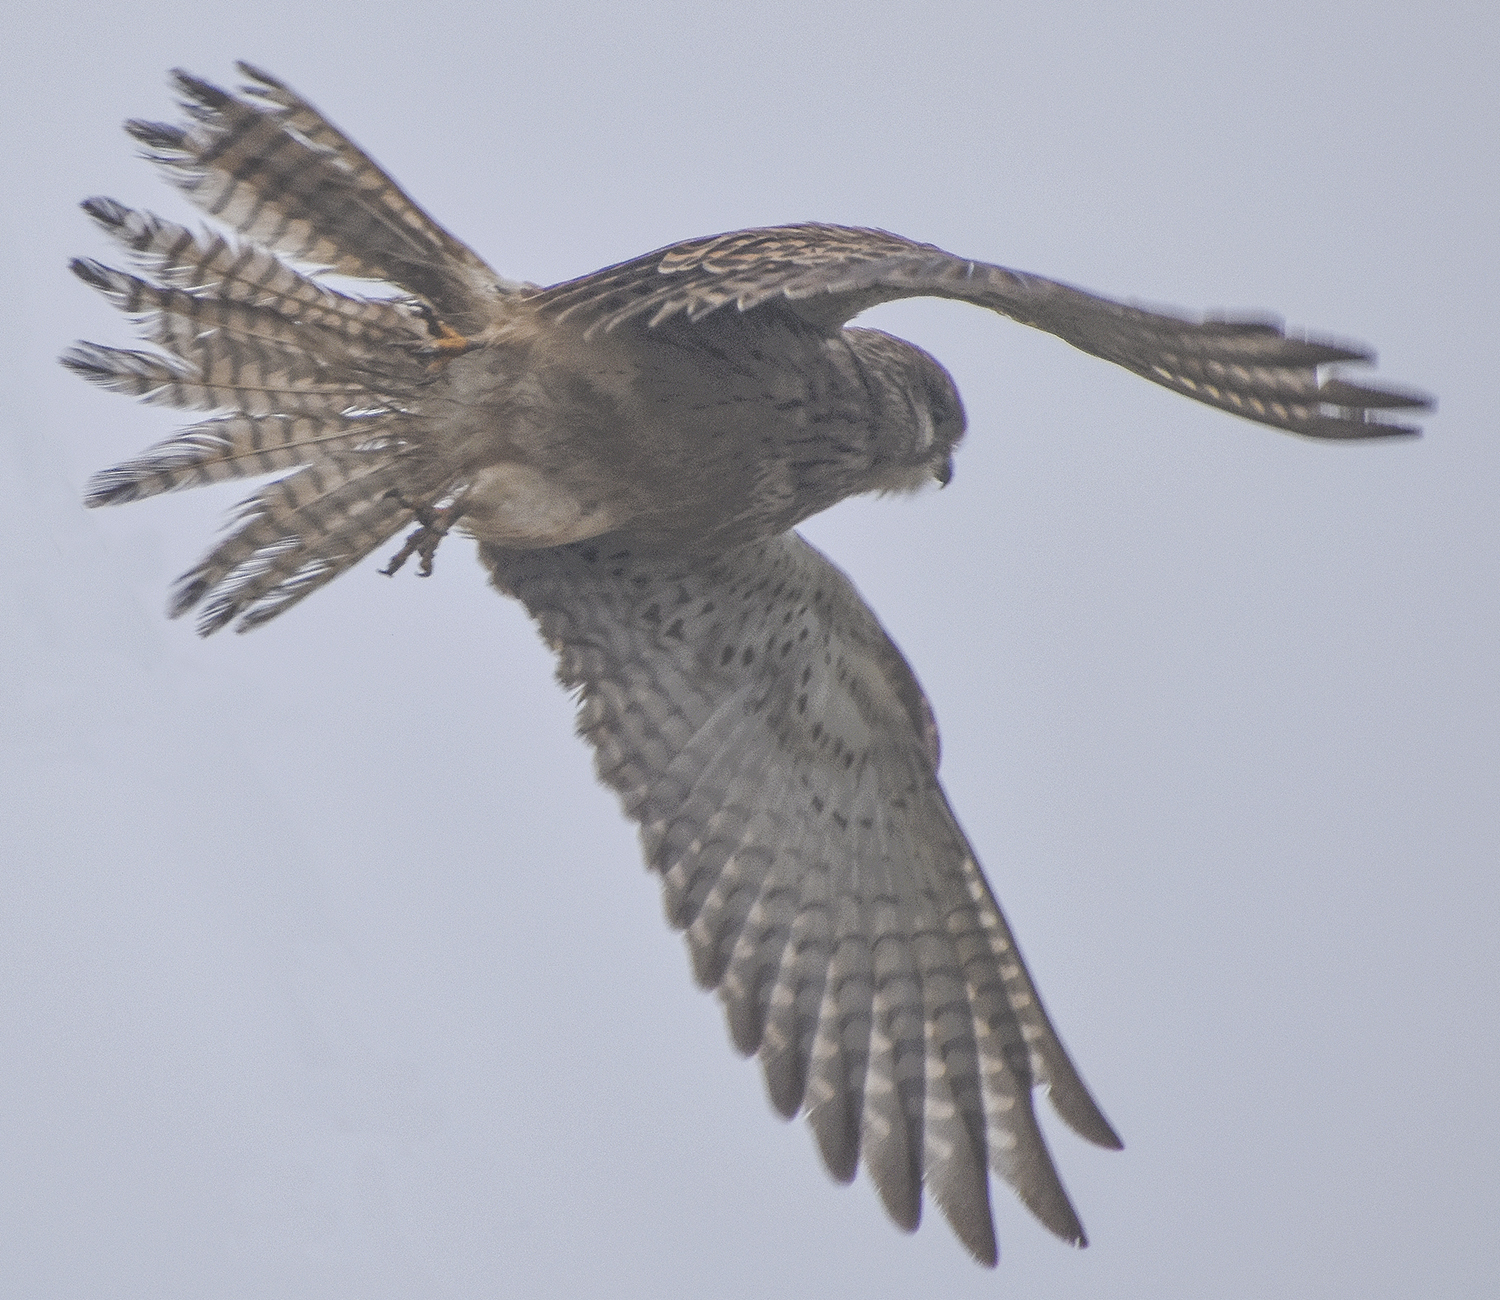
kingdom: Animalia
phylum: Chordata
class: Aves
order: Falconiformes
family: Falconidae
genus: Falco
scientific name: Falco tinnunculus
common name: Common kestrel
